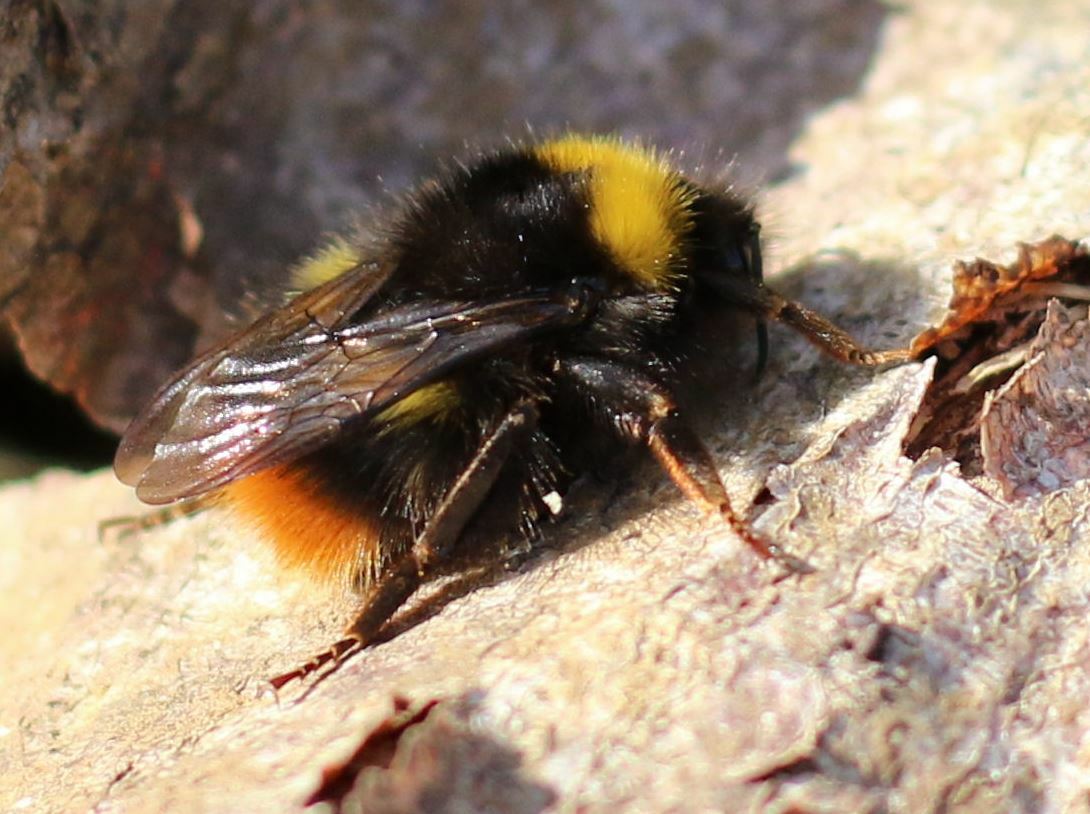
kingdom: Animalia
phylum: Arthropoda
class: Insecta
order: Hymenoptera
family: Apidae
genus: Bombus
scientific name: Bombus pratorum
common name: Early humble-bee
